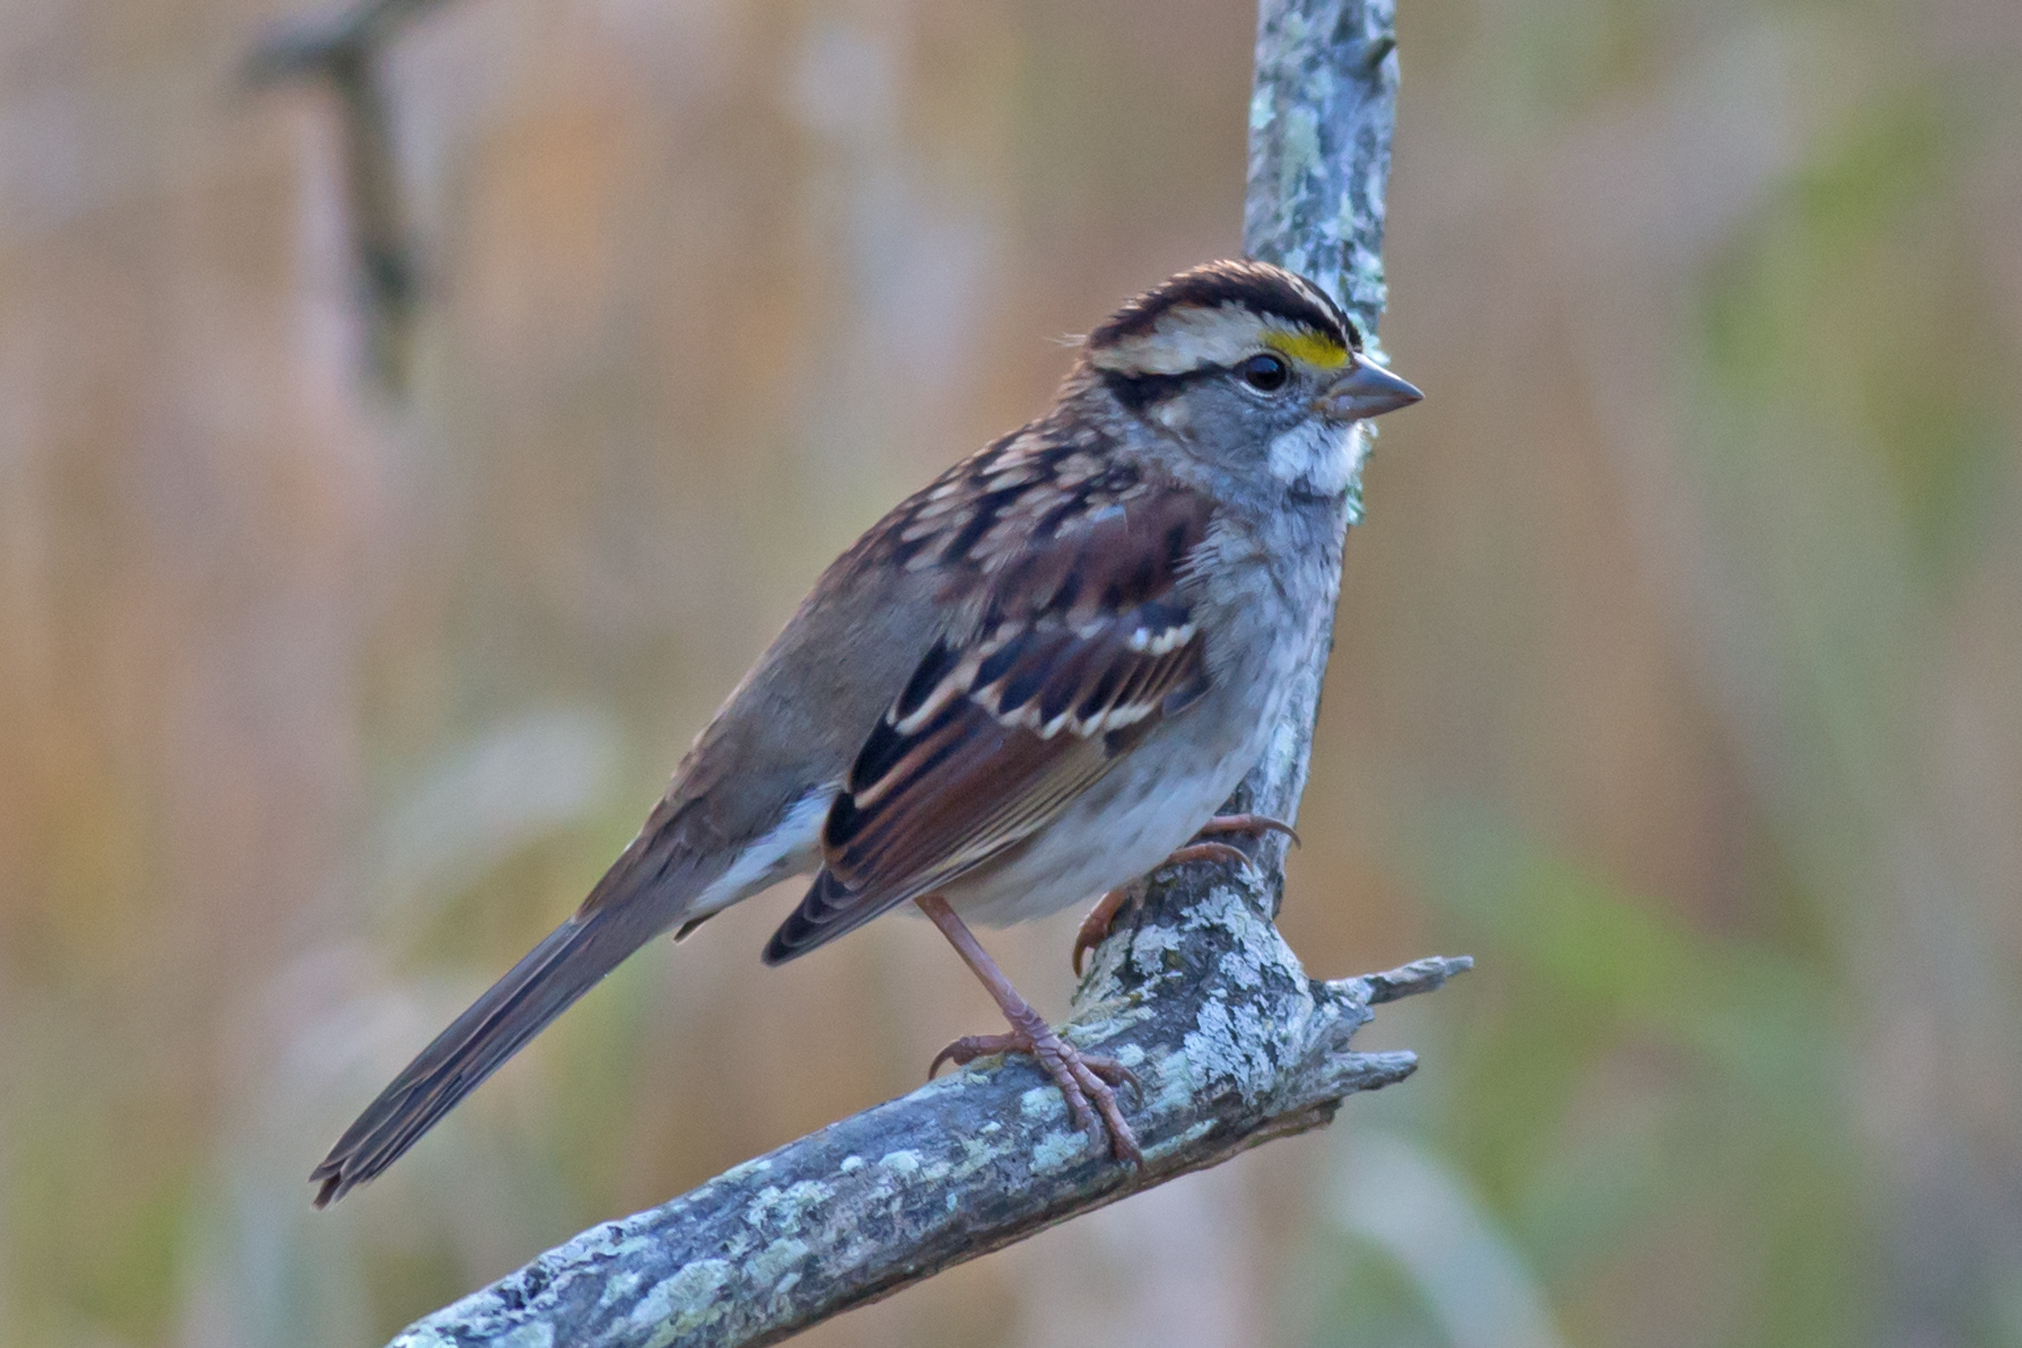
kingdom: Animalia
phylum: Chordata
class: Aves
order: Passeriformes
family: Passerellidae
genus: Zonotrichia
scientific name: Zonotrichia albicollis
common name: White-throated sparrow
